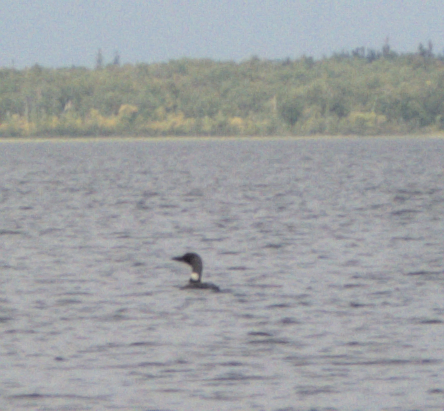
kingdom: Animalia
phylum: Chordata
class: Aves
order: Gaviiformes
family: Gaviidae
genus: Gavia
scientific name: Gavia immer
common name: Common loon
